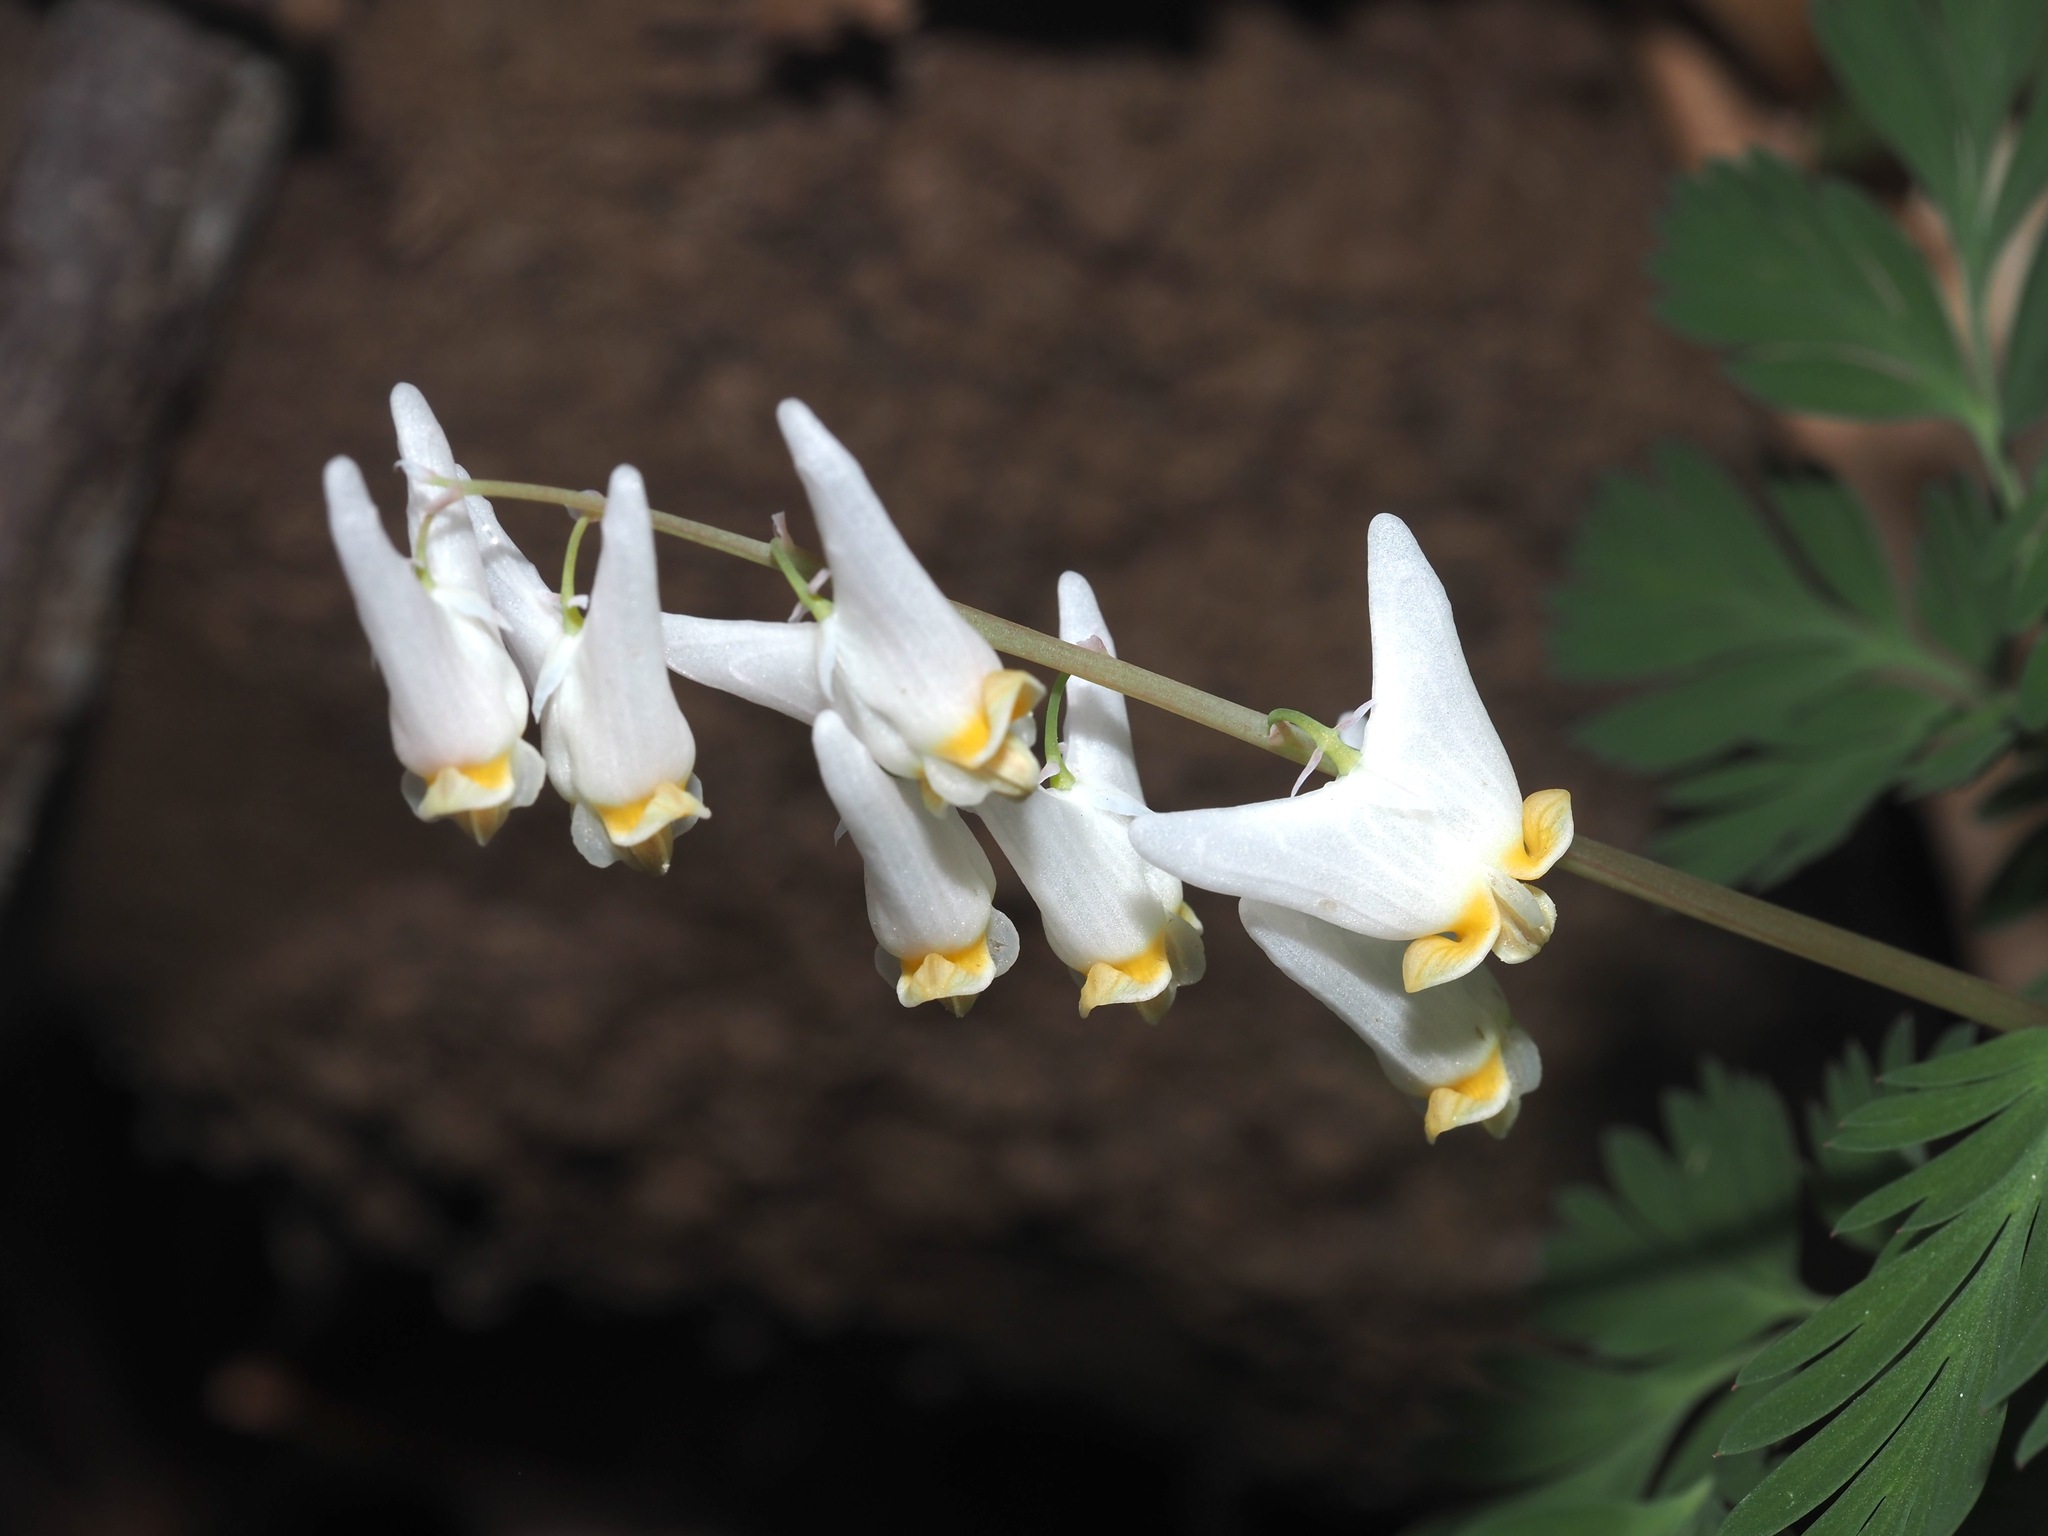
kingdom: Plantae
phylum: Tracheophyta
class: Magnoliopsida
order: Ranunculales
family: Papaveraceae
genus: Dicentra
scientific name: Dicentra cucullaria
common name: Dutchman's breeches
